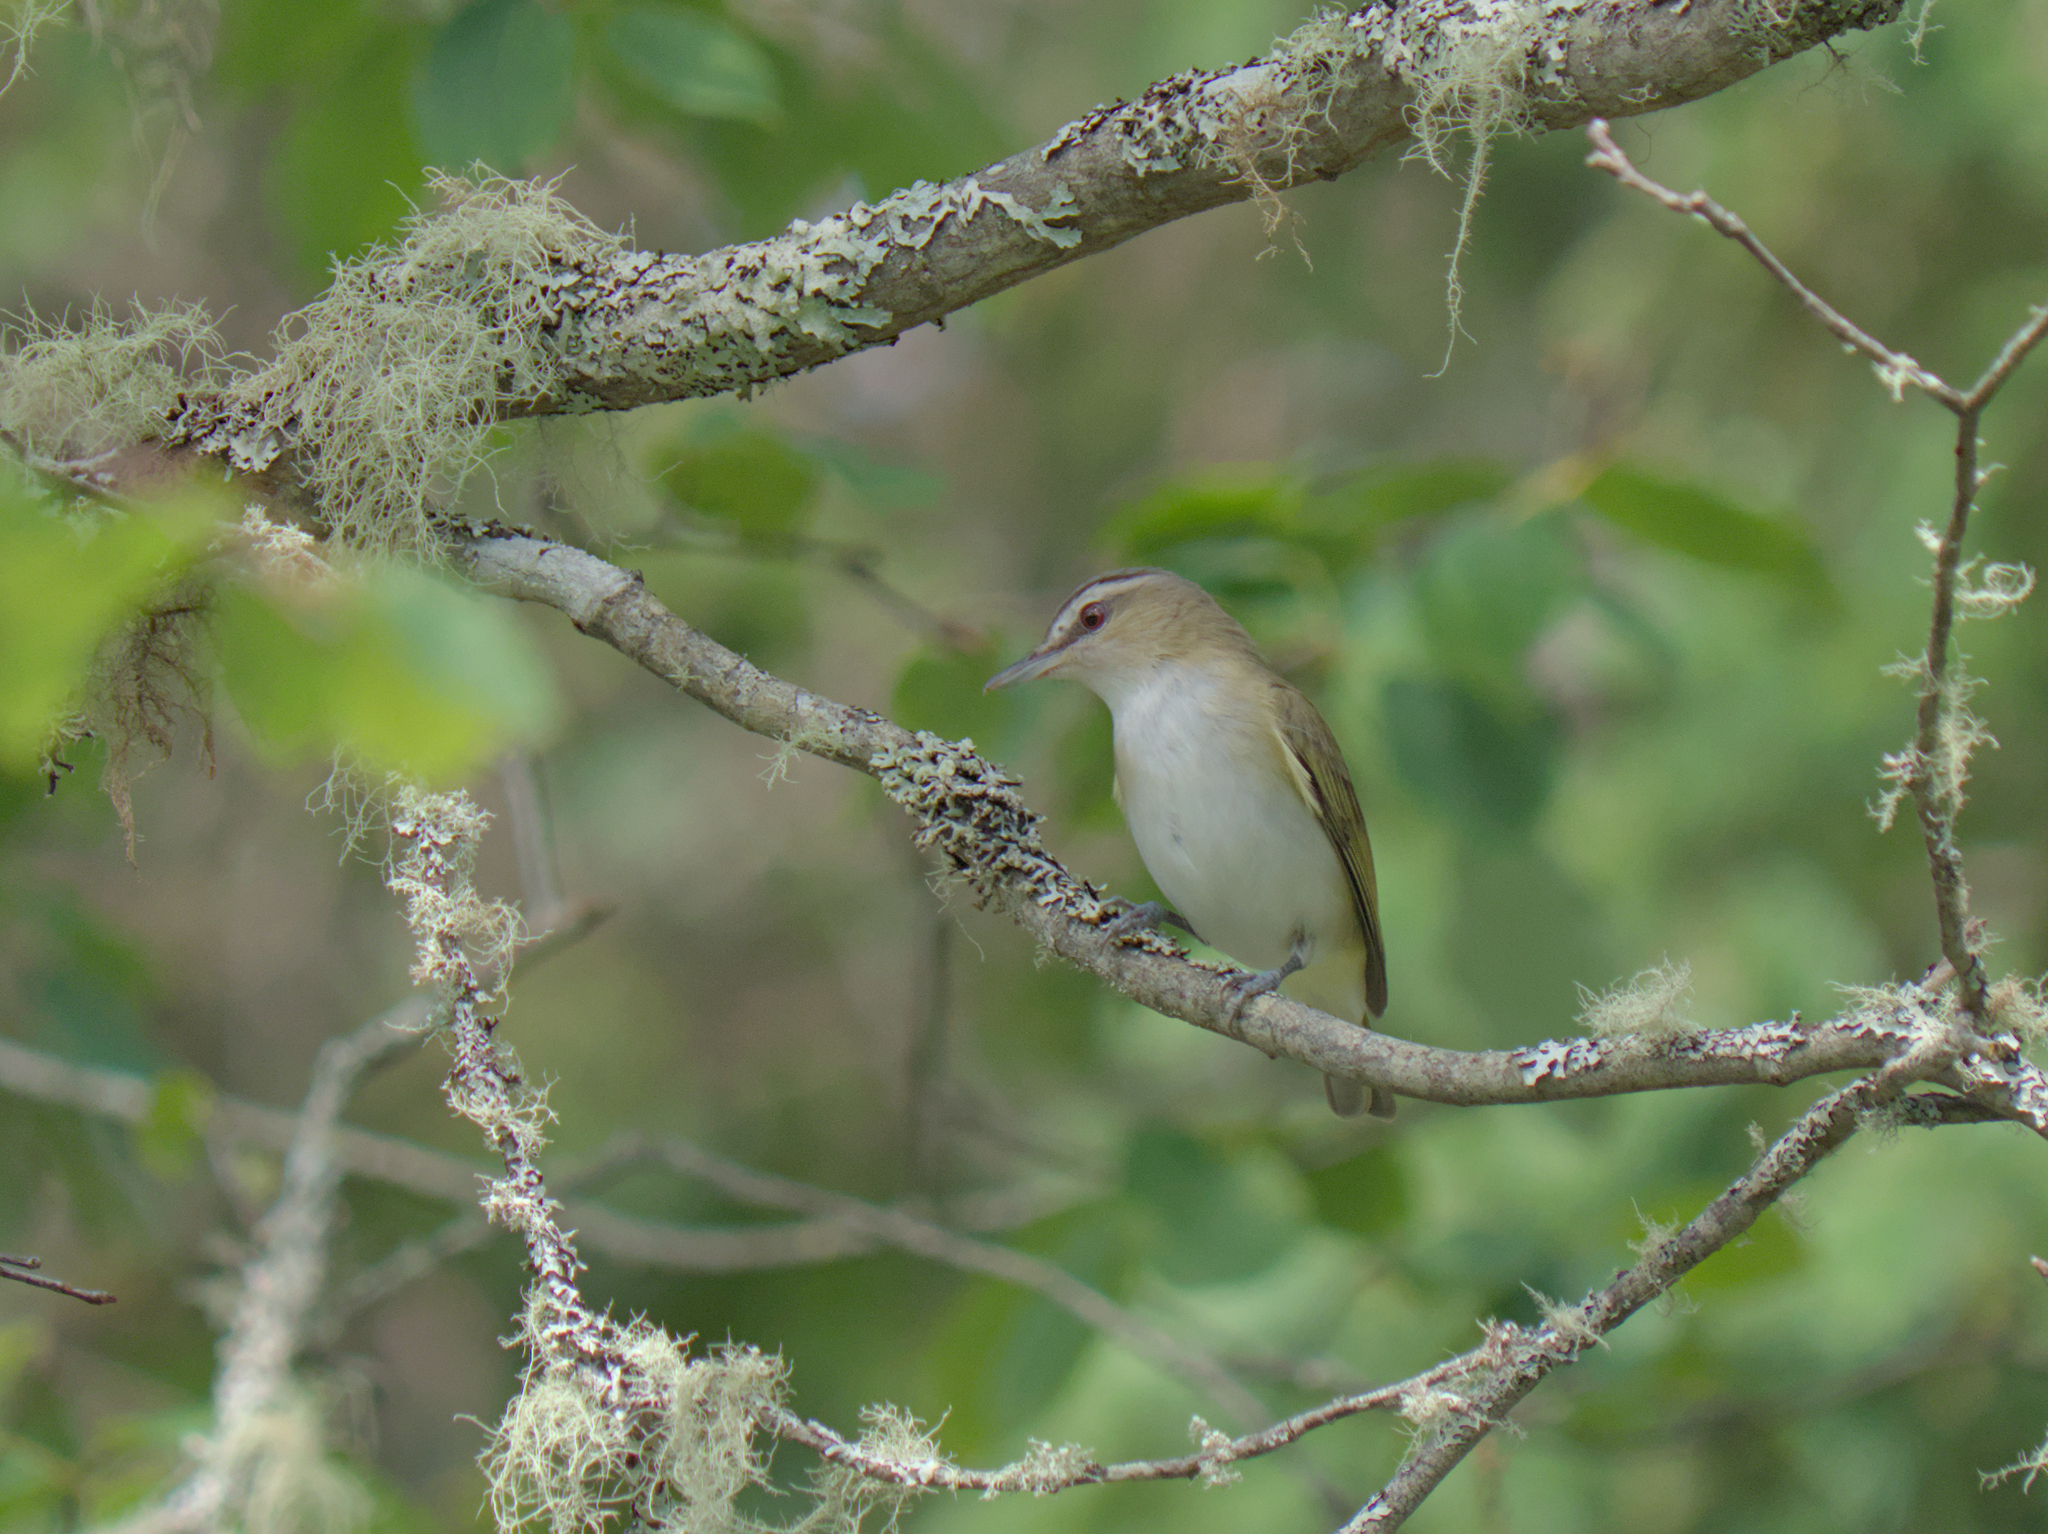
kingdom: Animalia
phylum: Chordata
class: Aves
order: Passeriformes
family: Vireonidae
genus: Vireo
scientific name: Vireo olivaceus
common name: Red-eyed vireo
